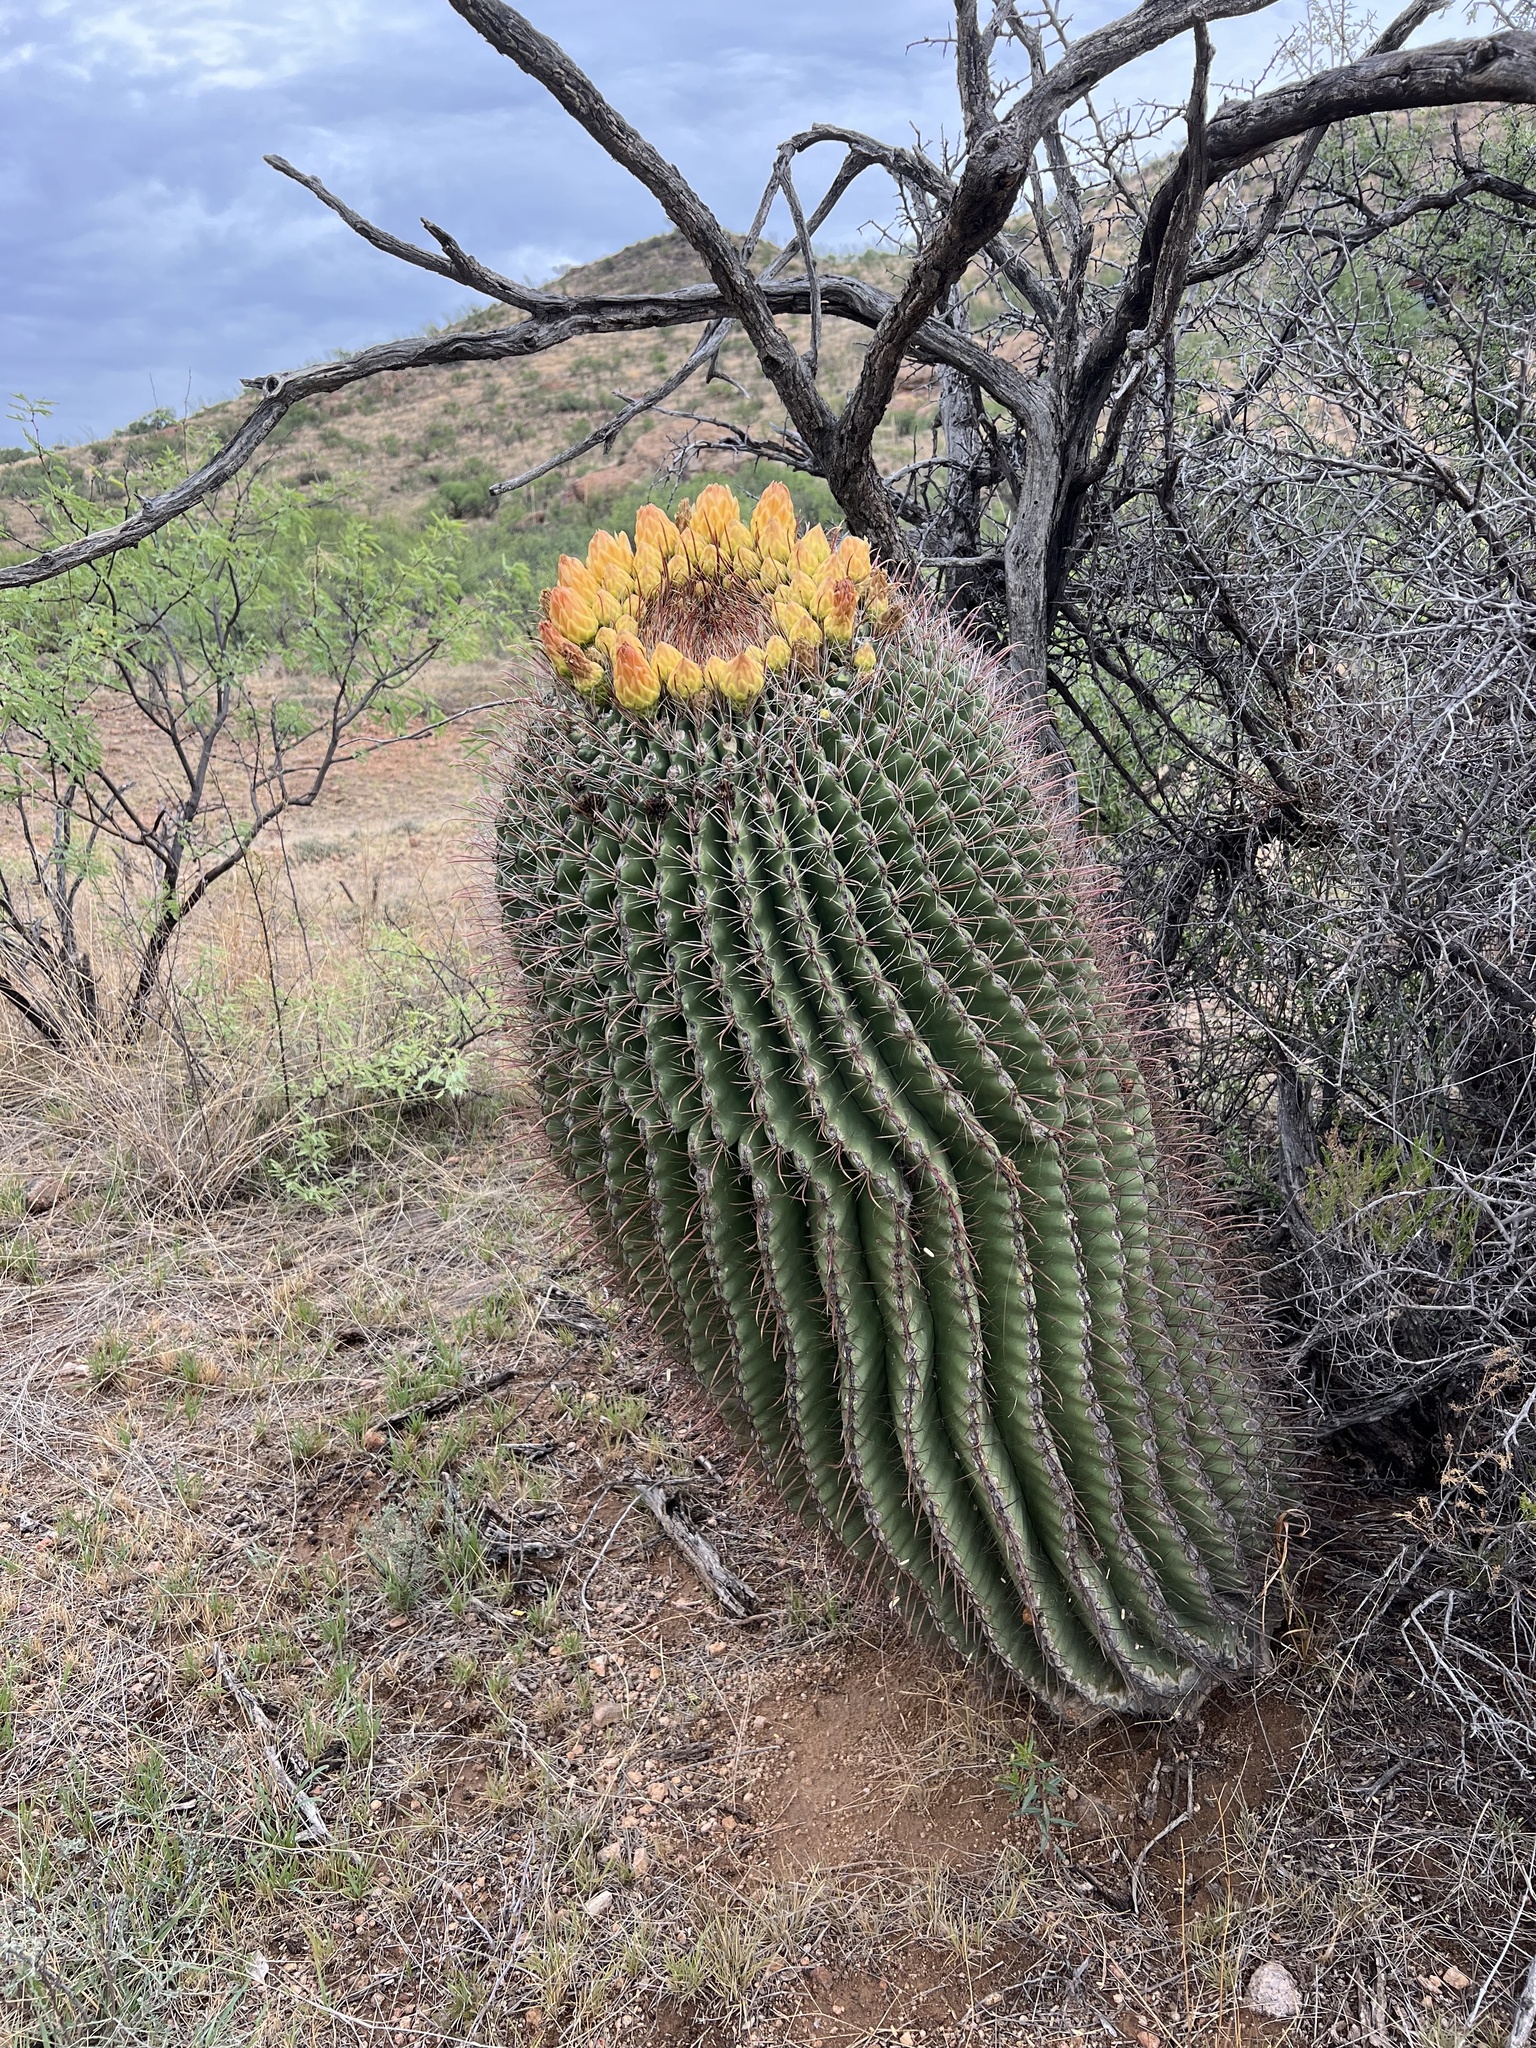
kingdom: Plantae
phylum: Tracheophyta
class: Magnoliopsida
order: Caryophyllales
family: Cactaceae
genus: Ferocactus
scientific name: Ferocactus wislizeni
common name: Candy barrel cactus
